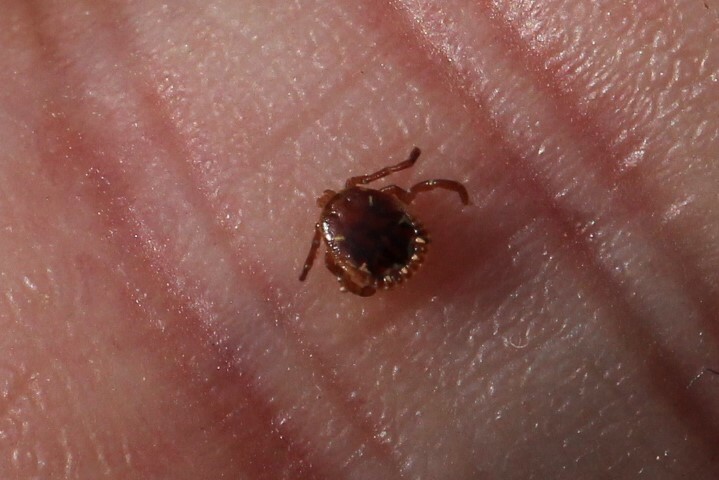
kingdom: Animalia
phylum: Arthropoda
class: Arachnida
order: Ixodida
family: Ixodidae
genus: Amblyomma
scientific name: Amblyomma americanum
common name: Lone star tick
